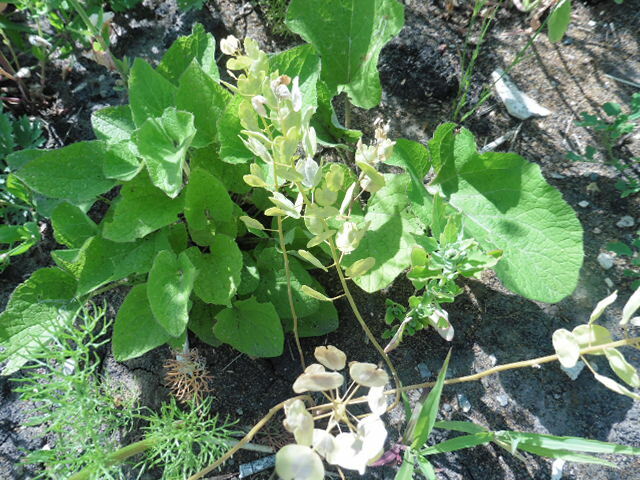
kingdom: Plantae
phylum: Tracheophyta
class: Magnoliopsida
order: Brassicales
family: Brassicaceae
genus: Thlaspi
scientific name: Thlaspi arvense
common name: Field pennycress
